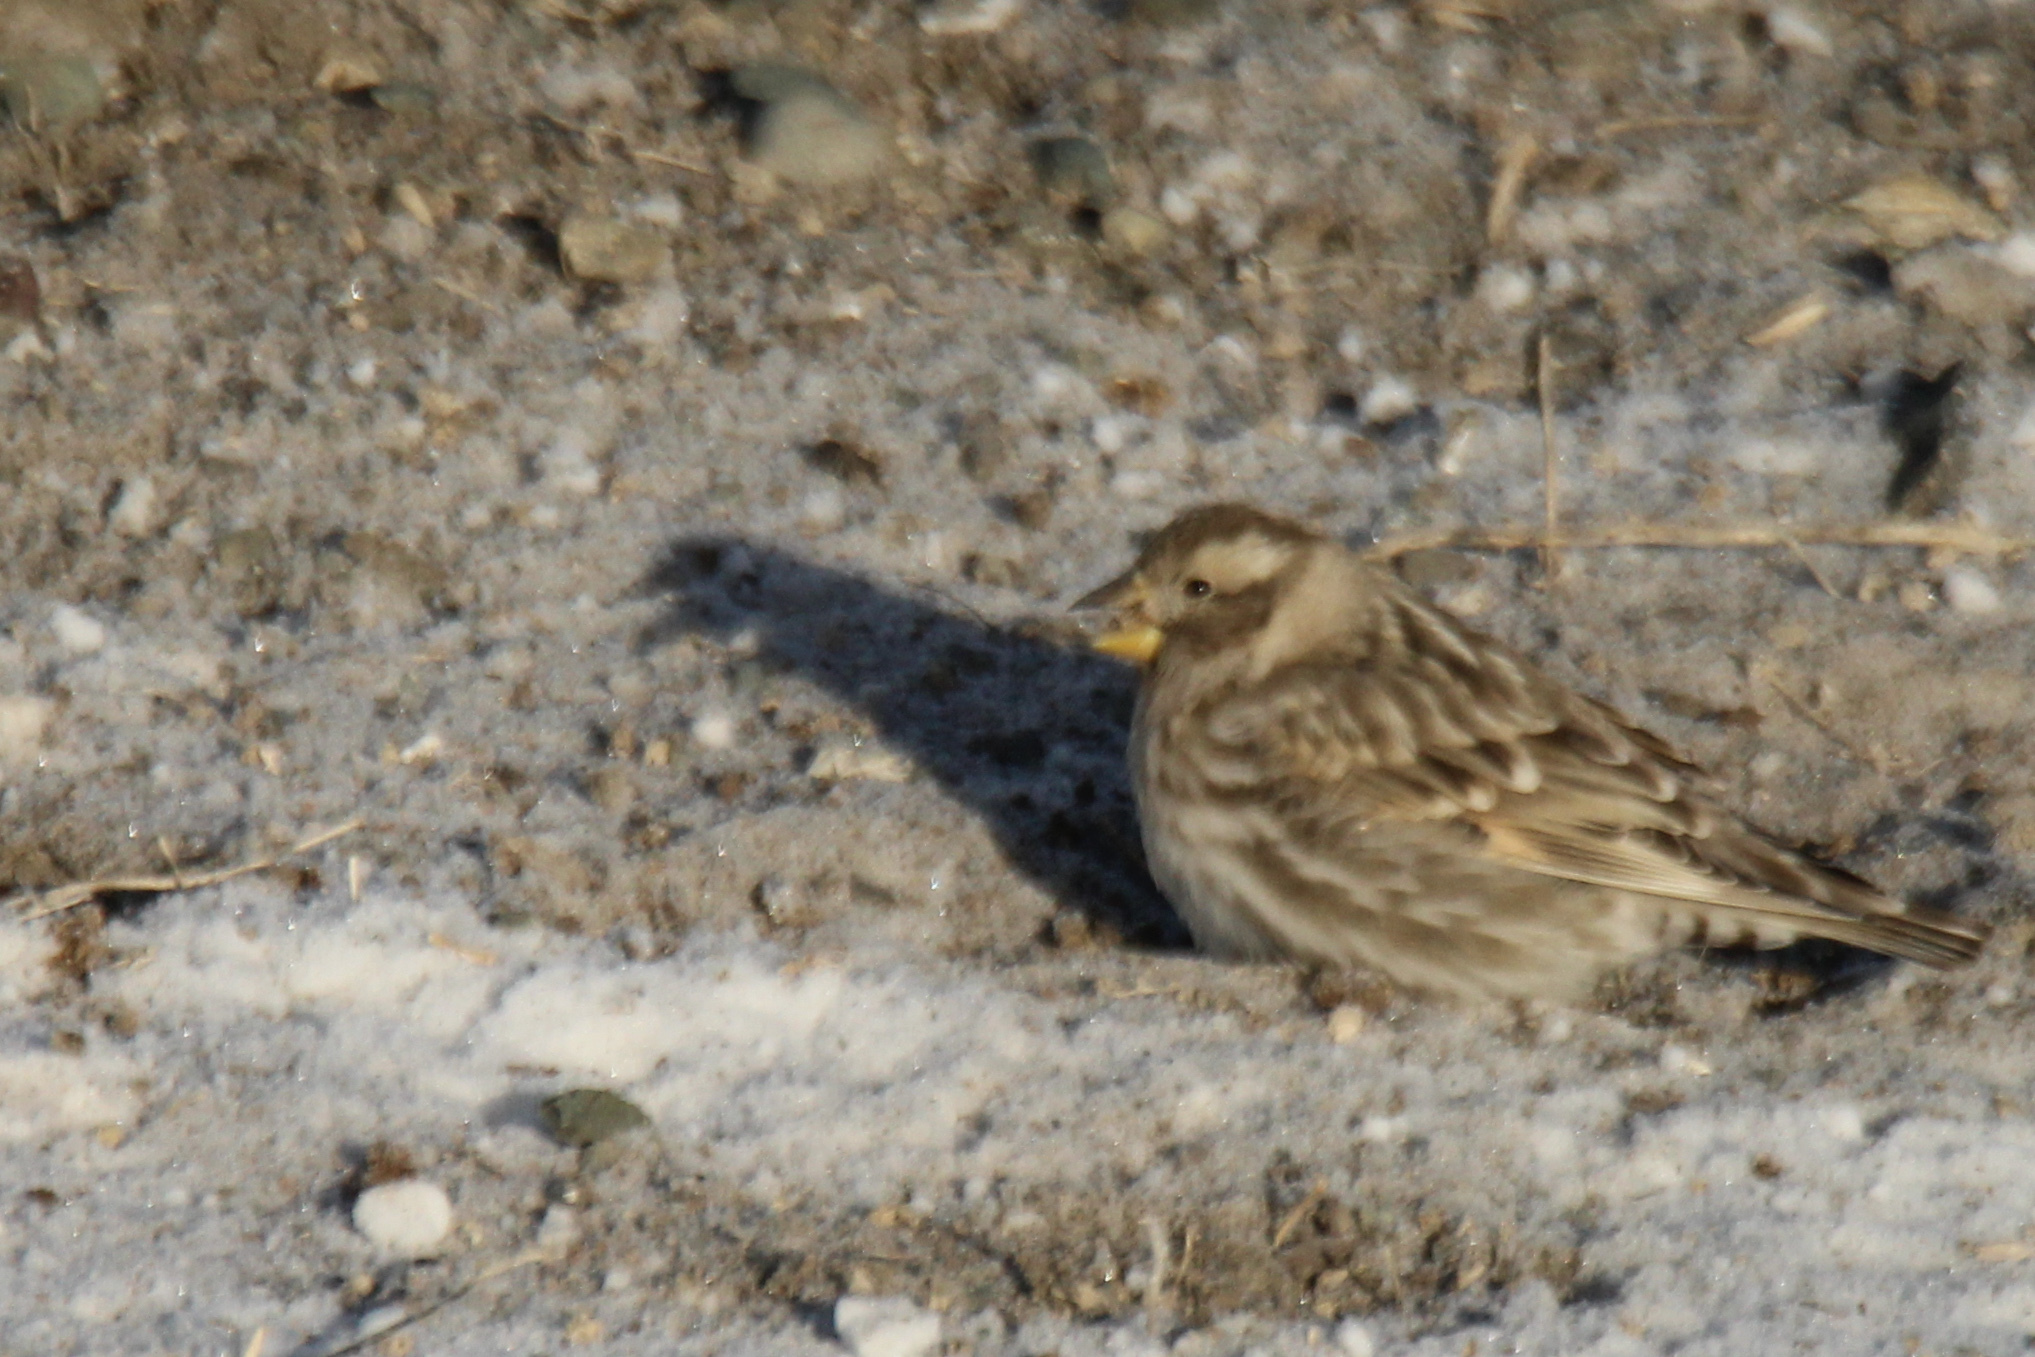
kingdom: Animalia
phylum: Chordata
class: Aves
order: Passeriformes
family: Passeridae
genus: Petronia
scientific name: Petronia petronia
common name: Rock sparrow
